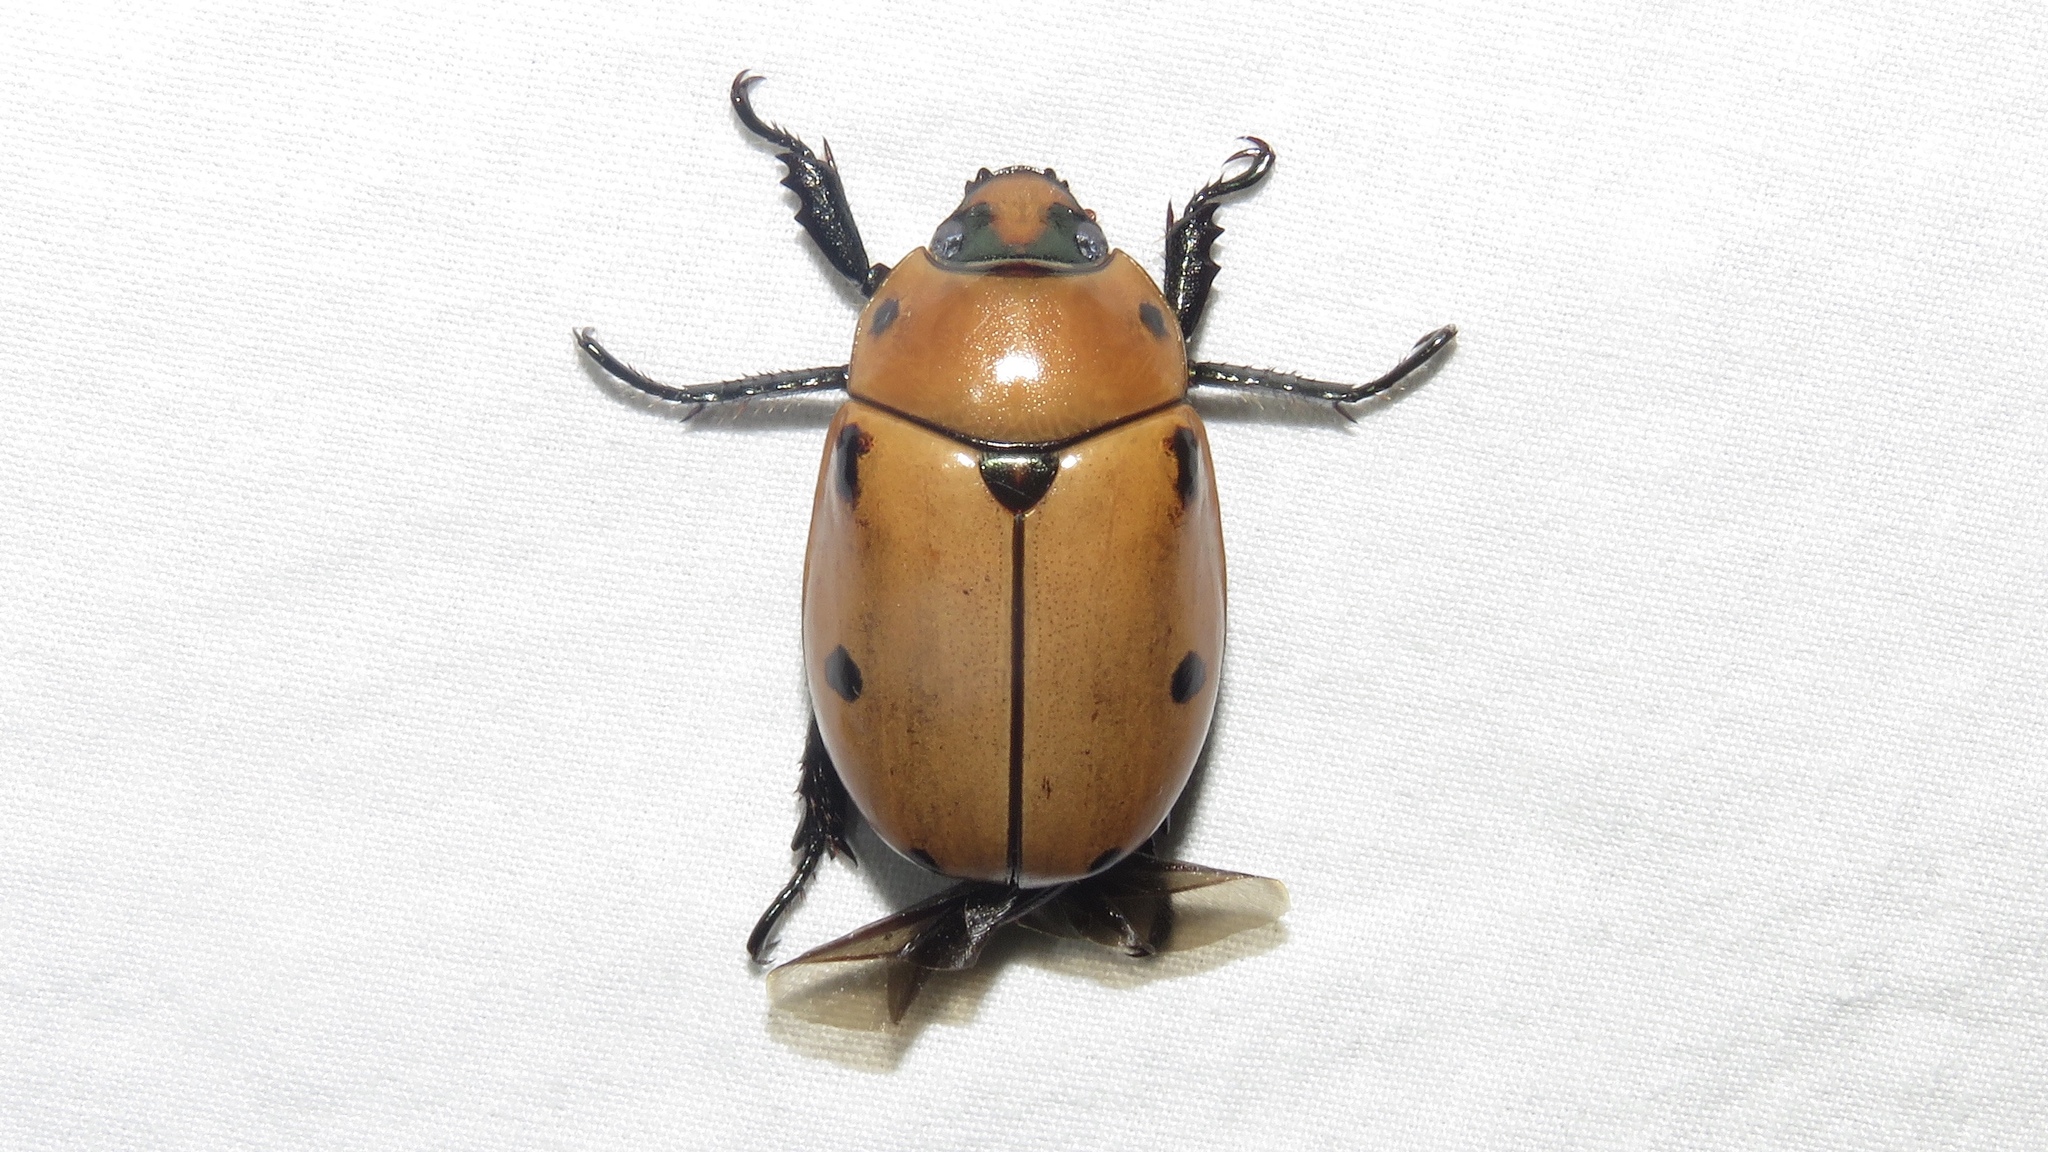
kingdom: Animalia
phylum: Arthropoda
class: Insecta
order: Coleoptera
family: Scarabaeidae
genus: Pelidnota
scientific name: Pelidnota punctata
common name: Grapevine beetle
